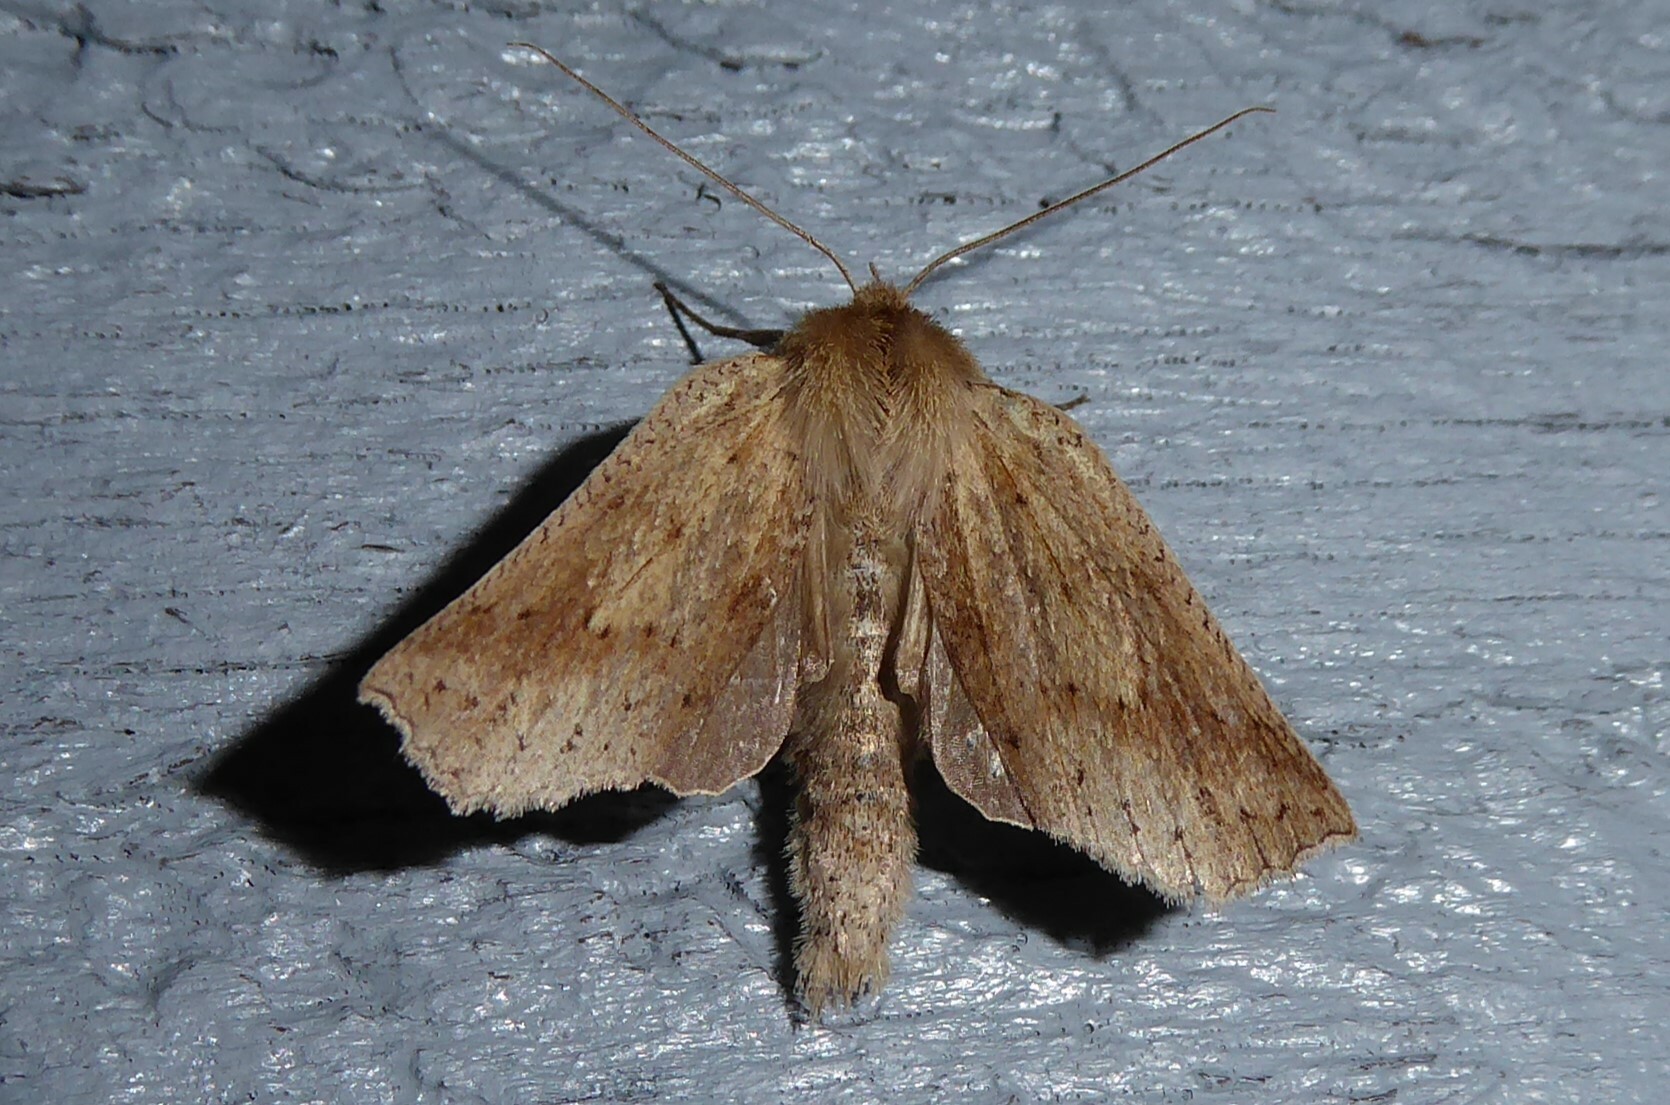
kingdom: Animalia
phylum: Arthropoda
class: Insecta
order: Lepidoptera
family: Geometridae
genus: Declana
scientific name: Declana leptomera
